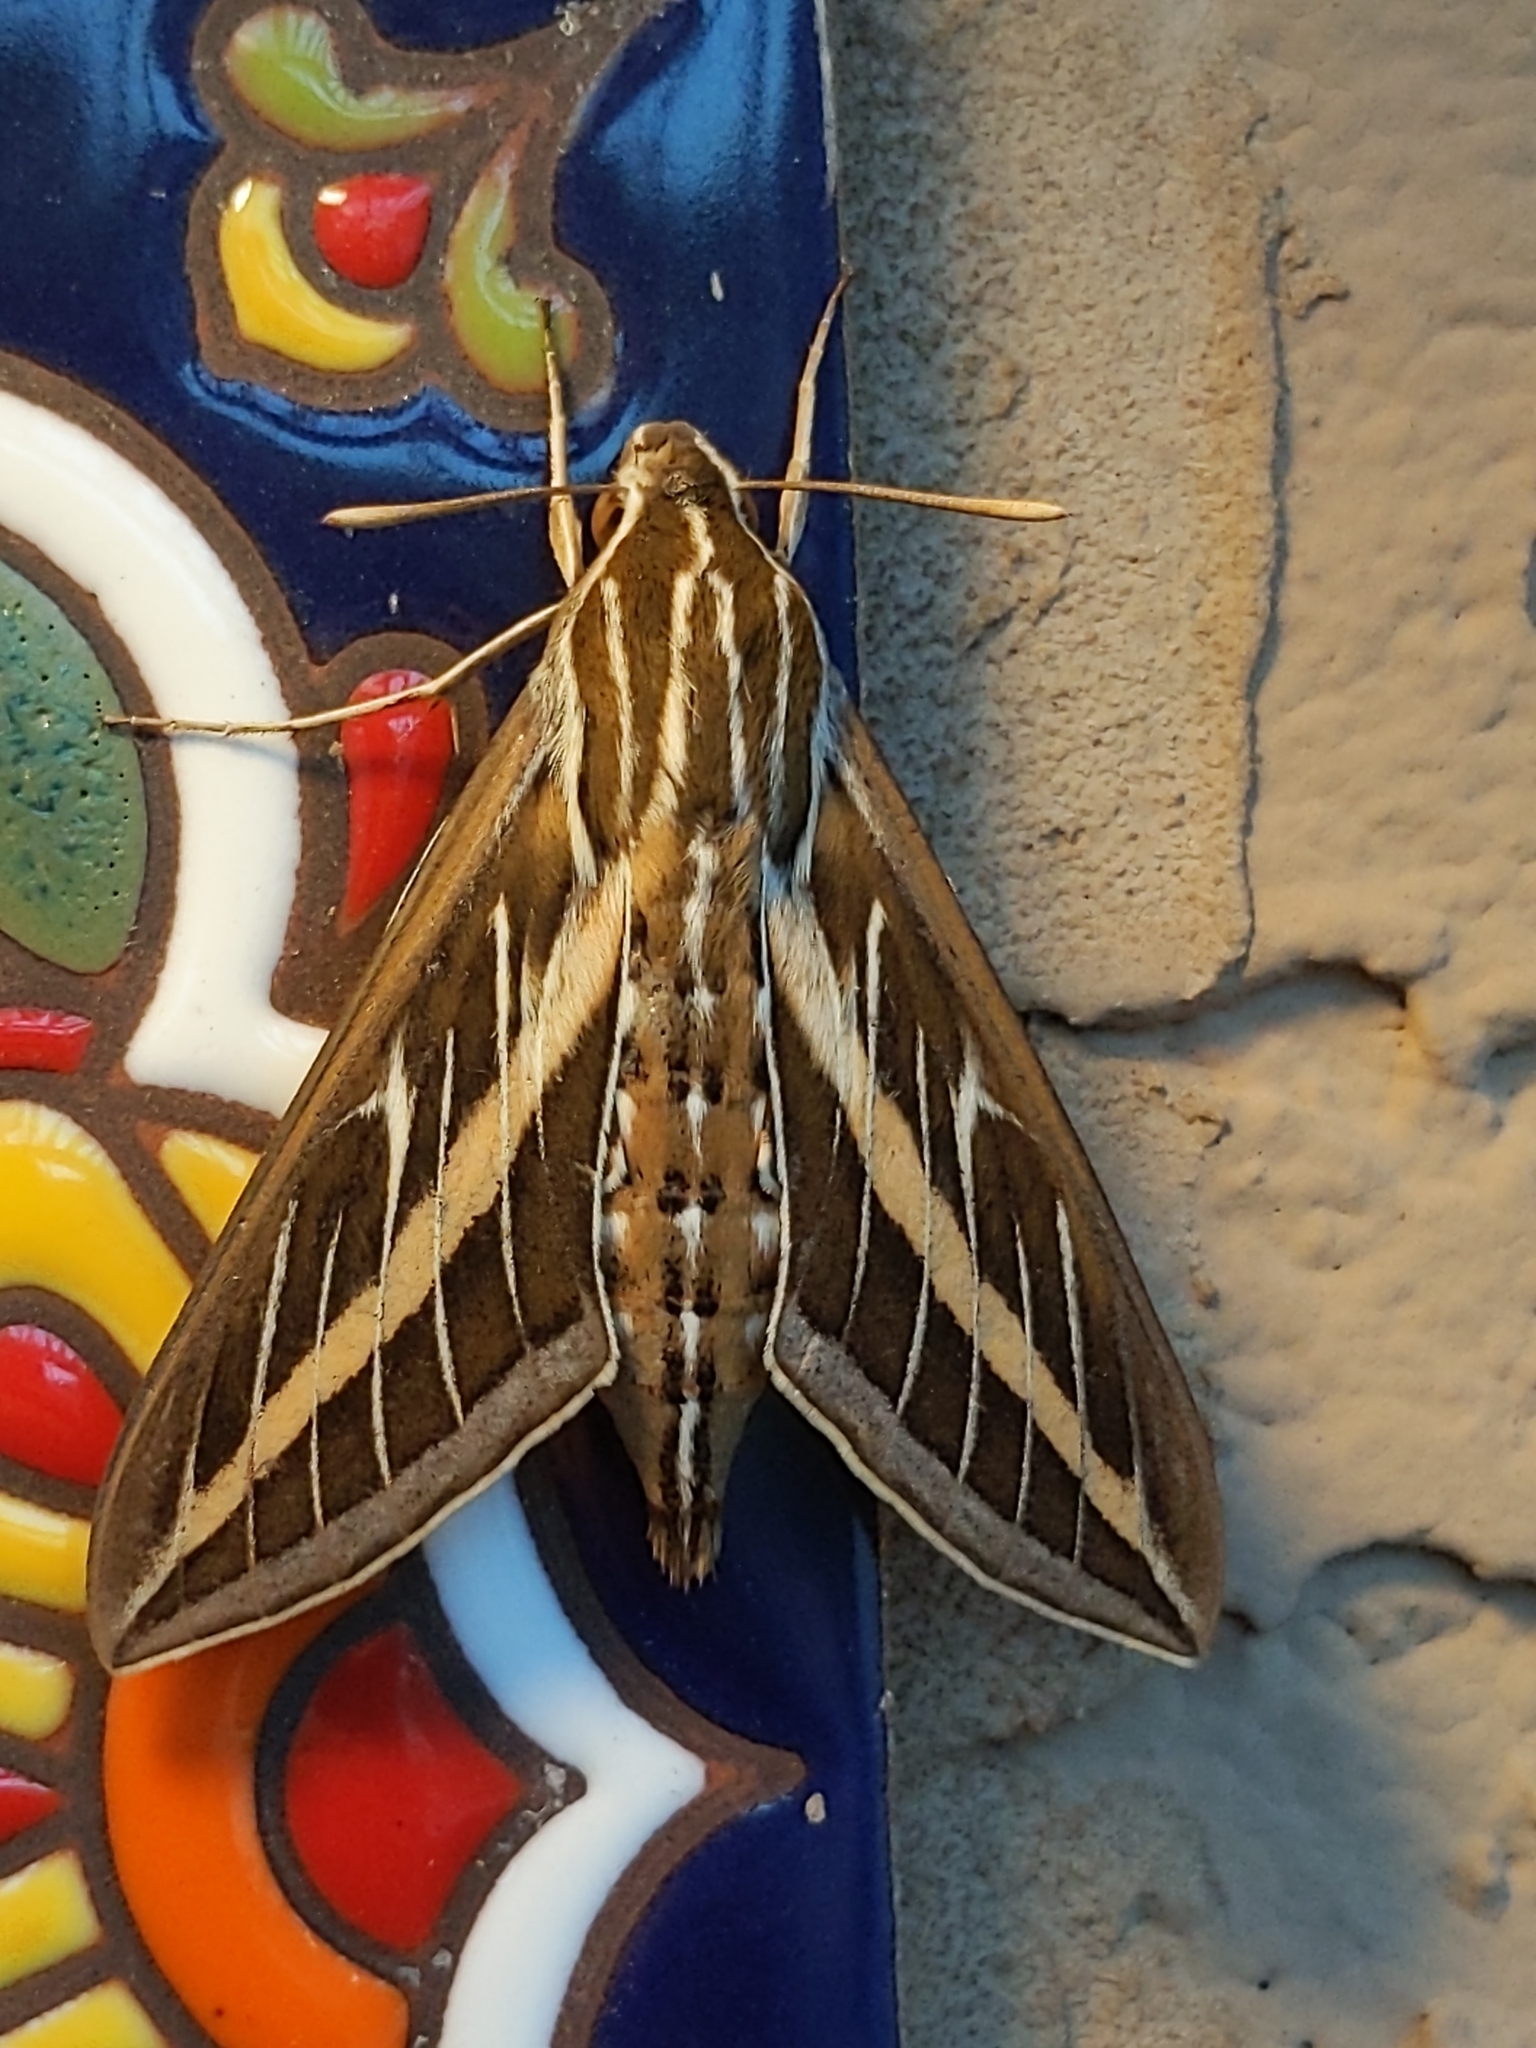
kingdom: Animalia
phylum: Arthropoda
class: Insecta
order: Lepidoptera
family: Sphingidae
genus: Hyles
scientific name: Hyles lineata
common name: White-lined sphinx
